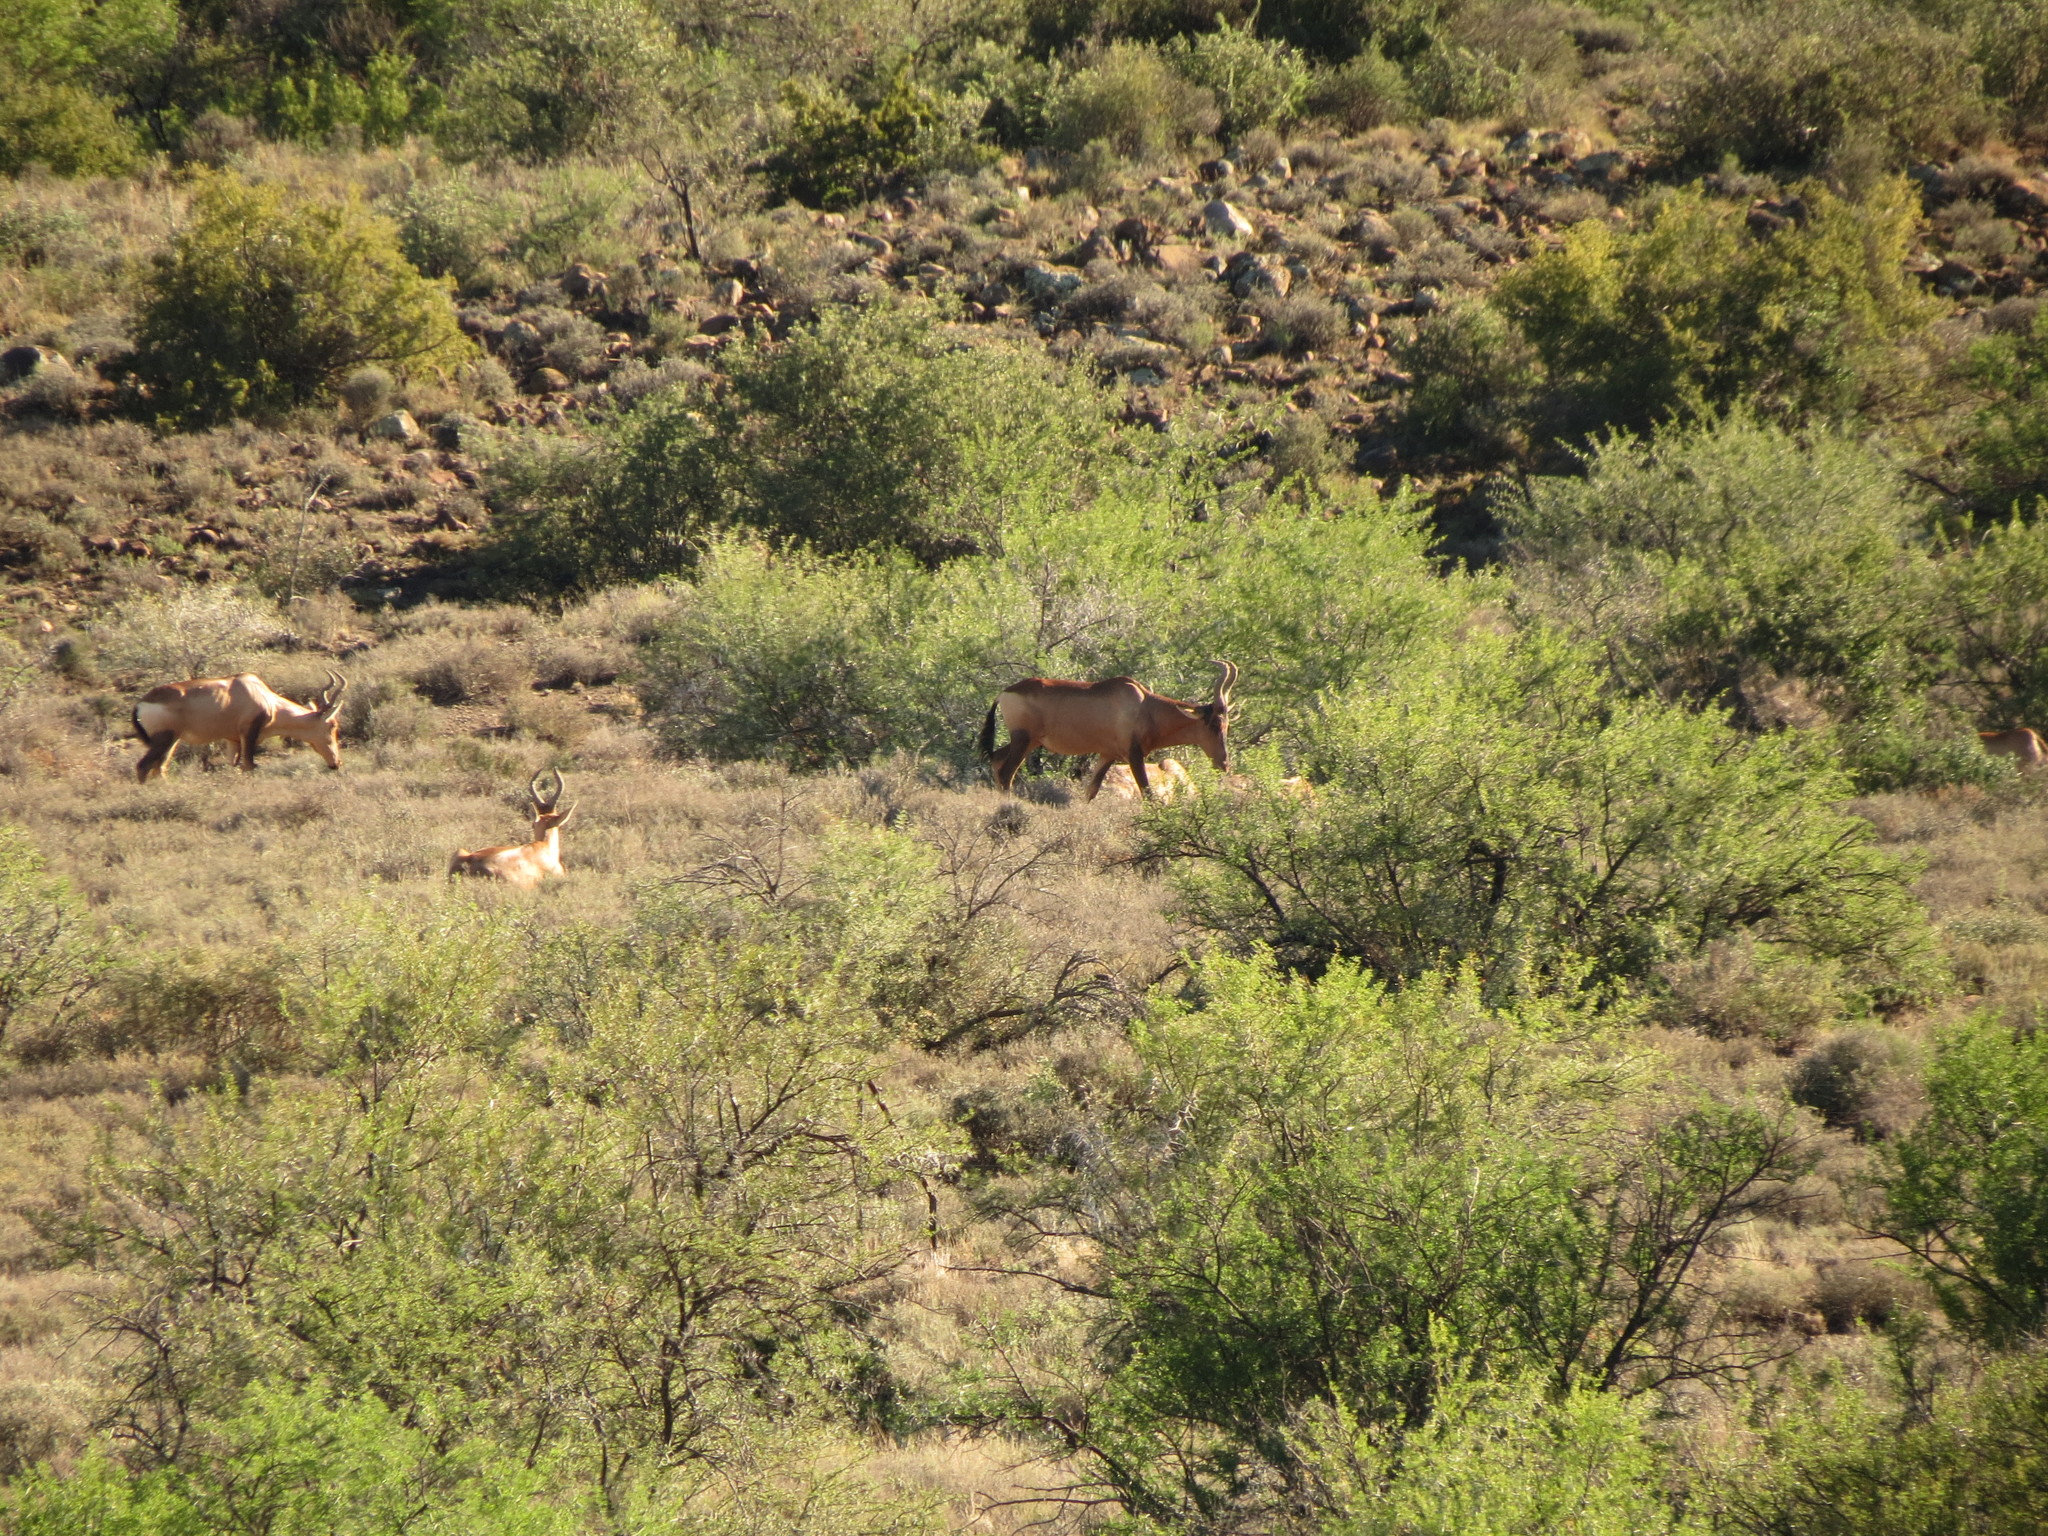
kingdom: Animalia
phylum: Chordata
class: Mammalia
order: Artiodactyla
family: Bovidae
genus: Alcelaphus
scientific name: Alcelaphus caama
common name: Red hartebeest
